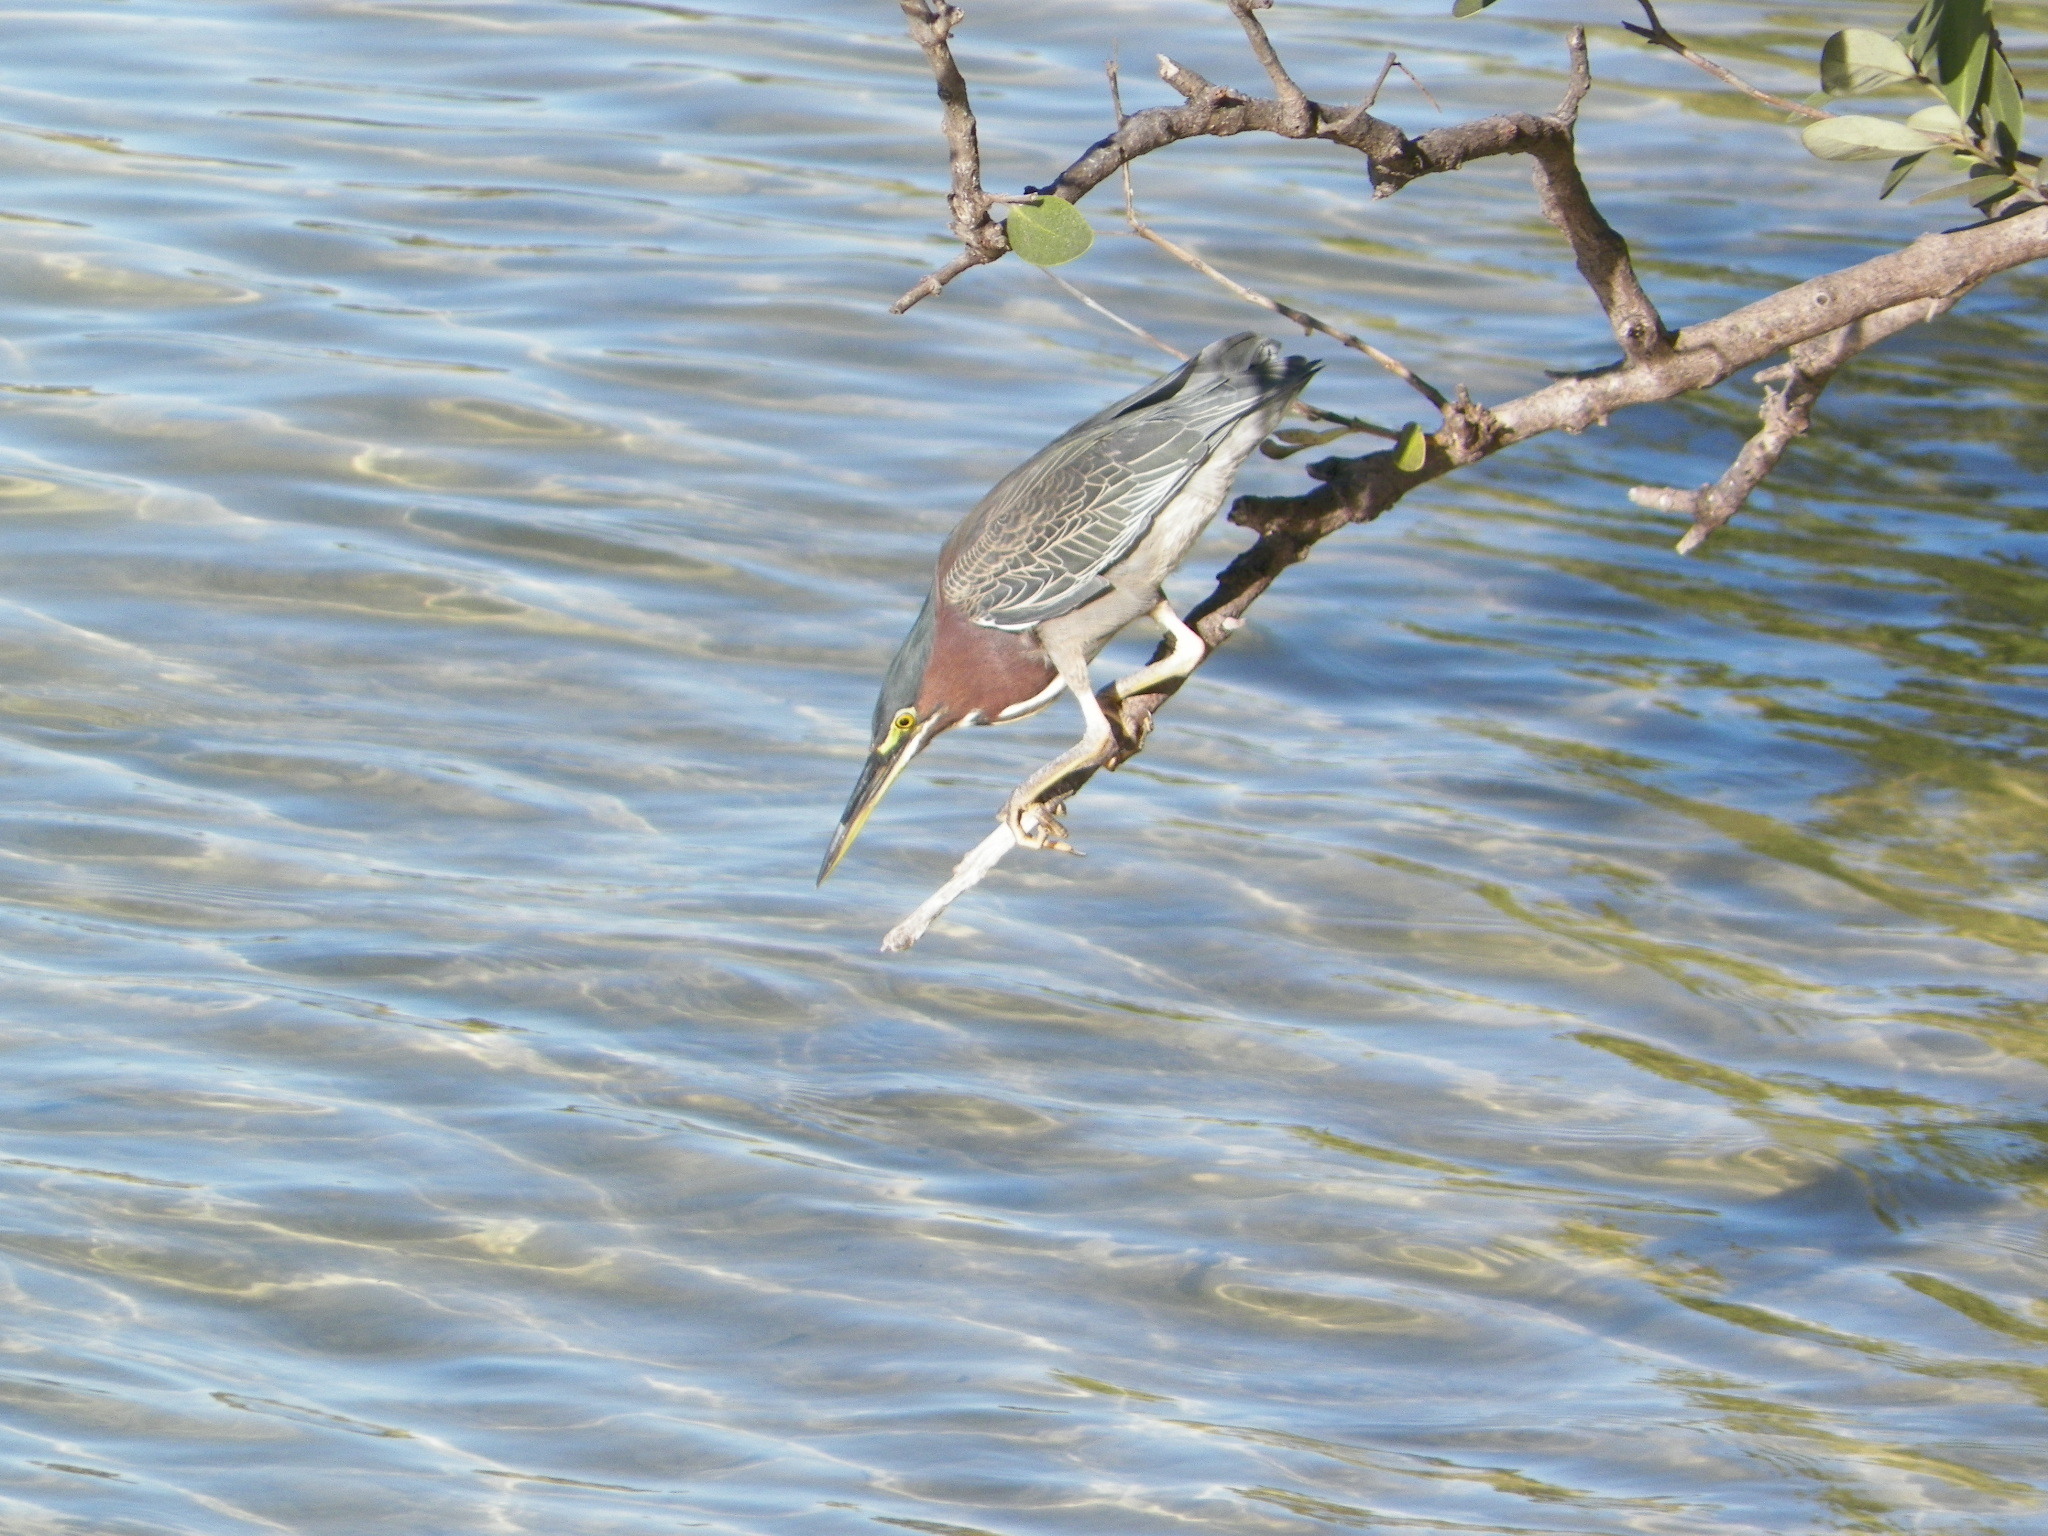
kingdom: Animalia
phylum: Chordata
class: Aves
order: Pelecaniformes
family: Ardeidae
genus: Butorides
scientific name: Butorides virescens
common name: Green heron
